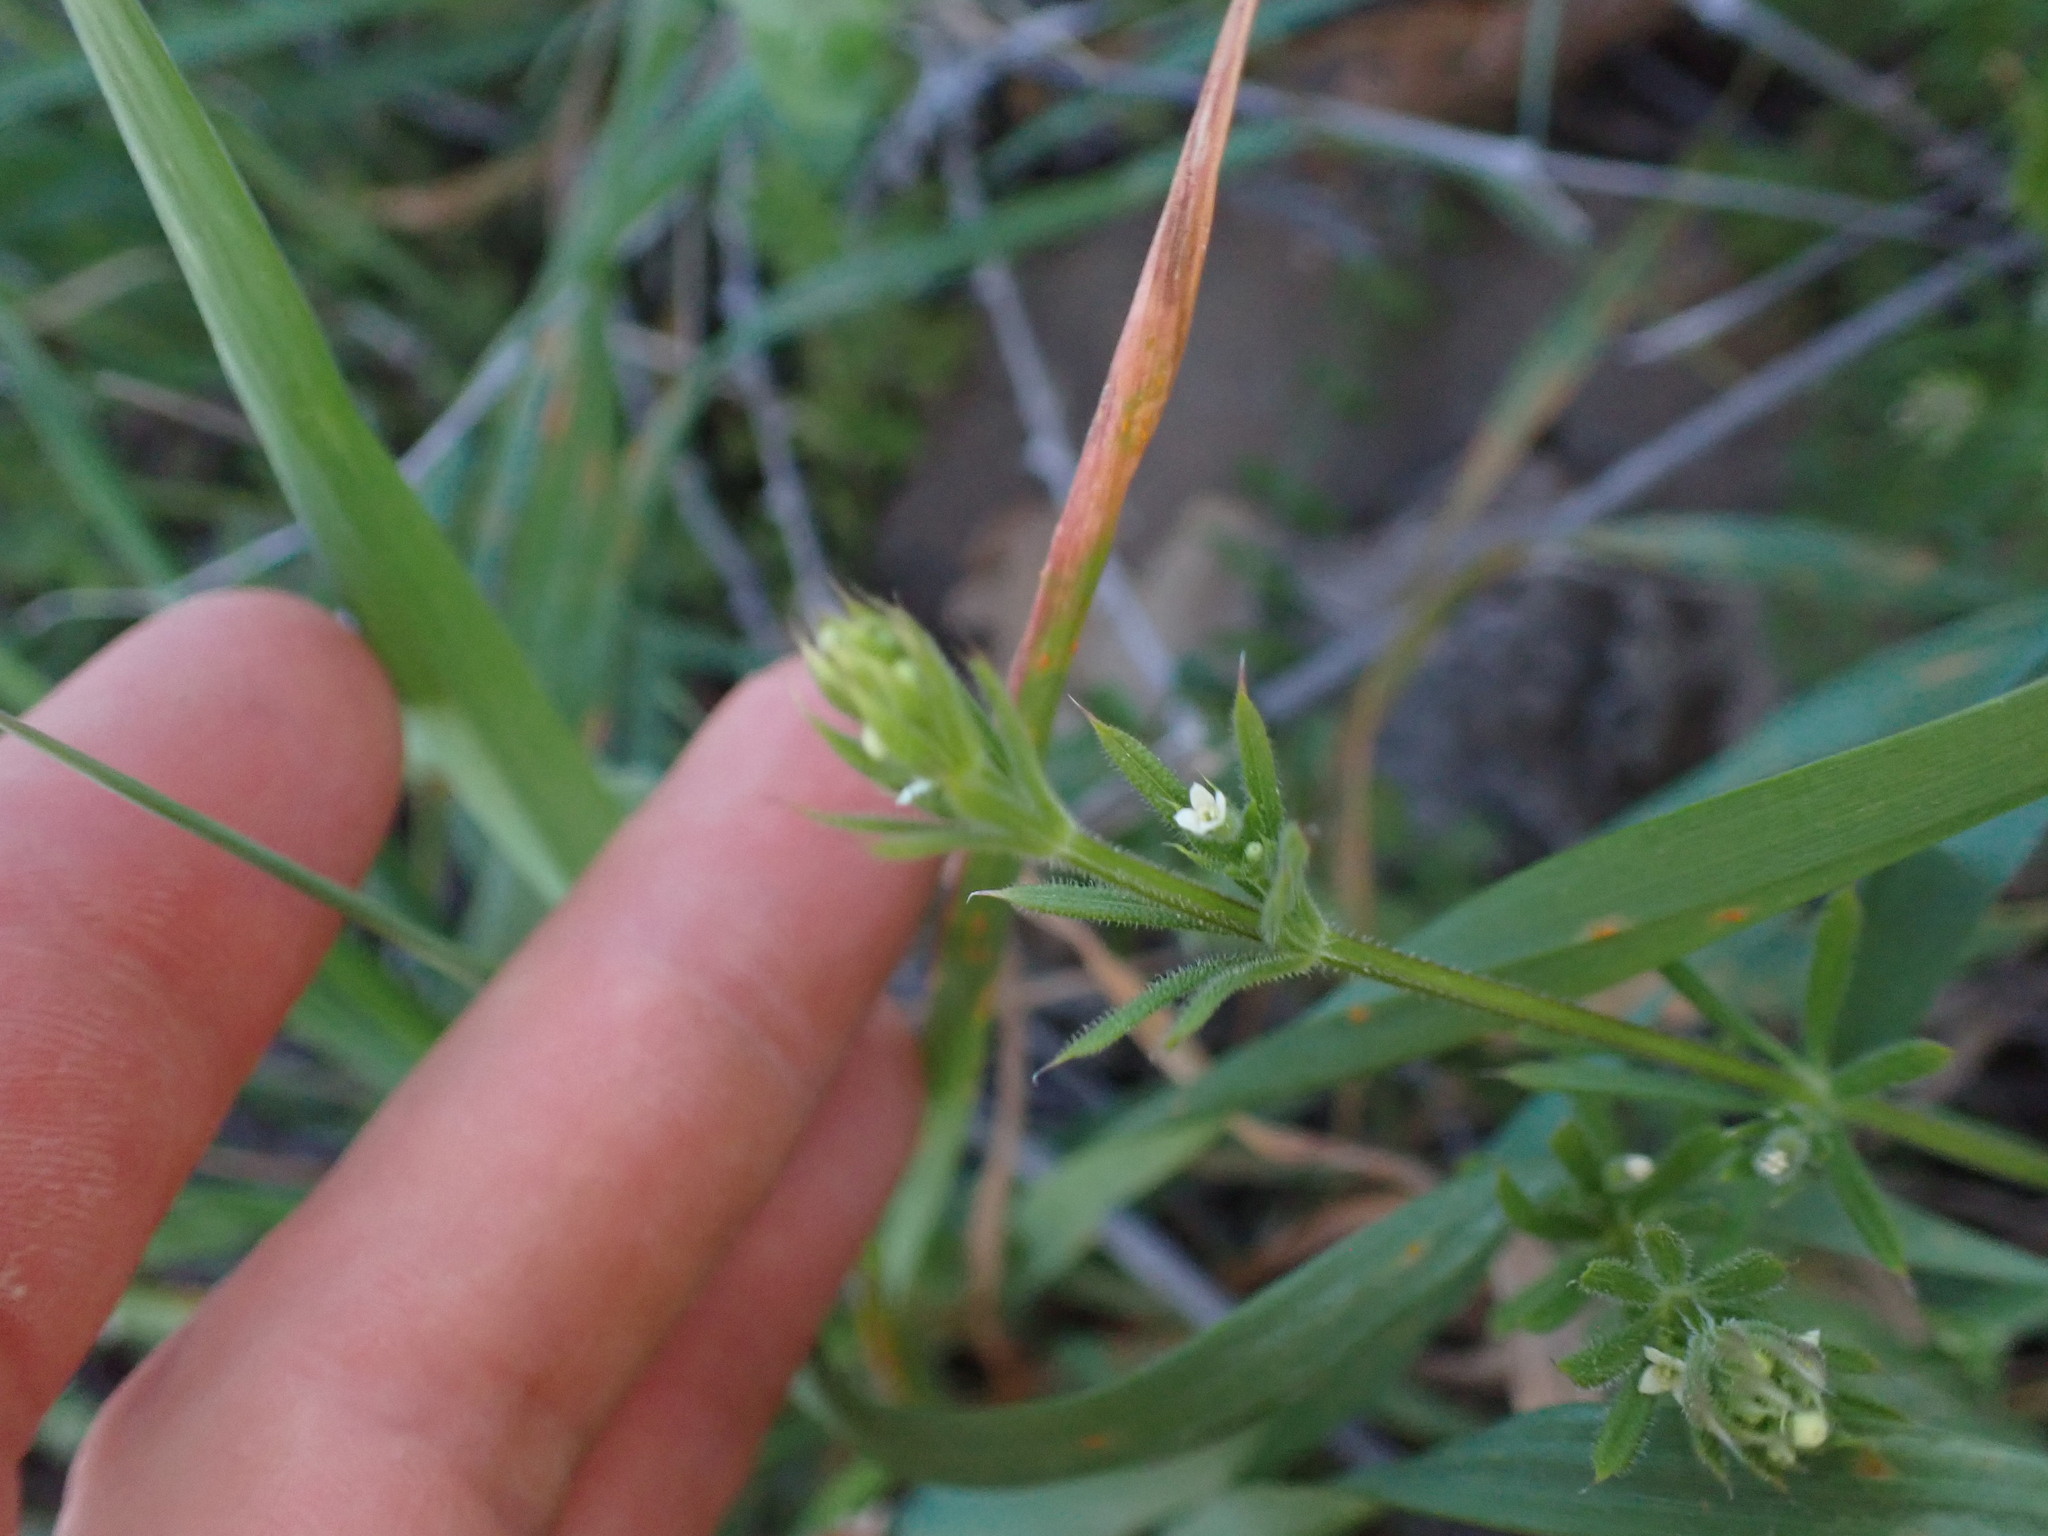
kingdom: Plantae
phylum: Tracheophyta
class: Magnoliopsida
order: Gentianales
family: Rubiaceae
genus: Galium
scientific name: Galium aparine
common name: Cleavers
